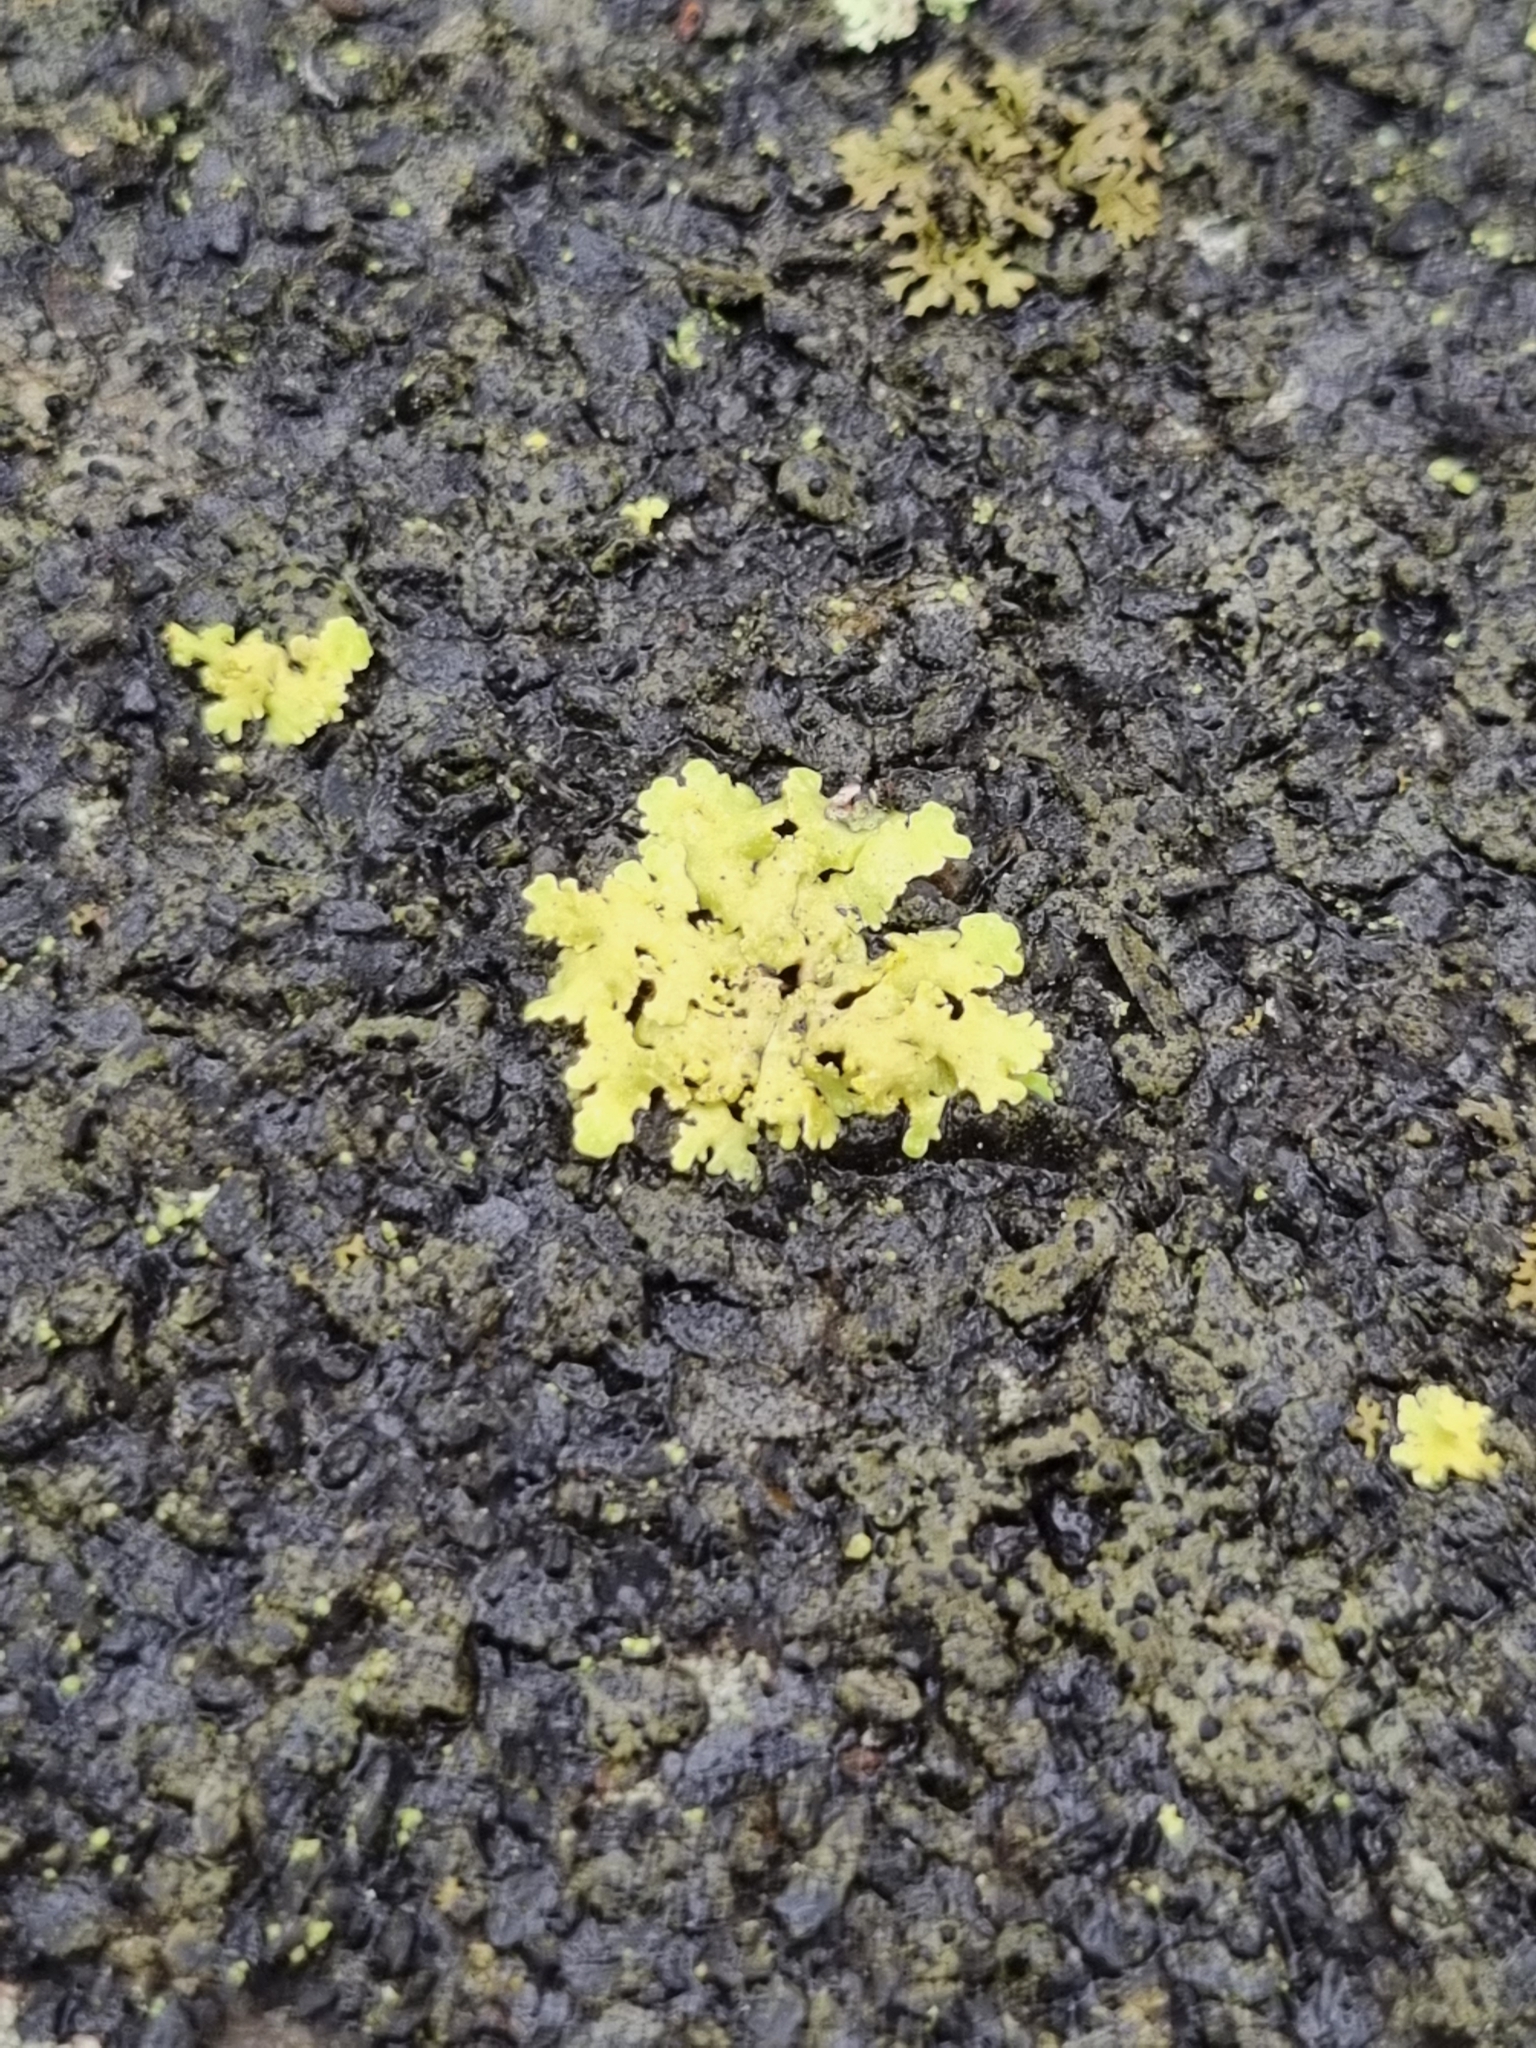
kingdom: Fungi
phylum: Ascomycota
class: Lecanoromycetes
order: Lecanorales
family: Parmeliaceae
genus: Vulpicida
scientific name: Vulpicida pinastri
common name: Powdered sunshine lichen
